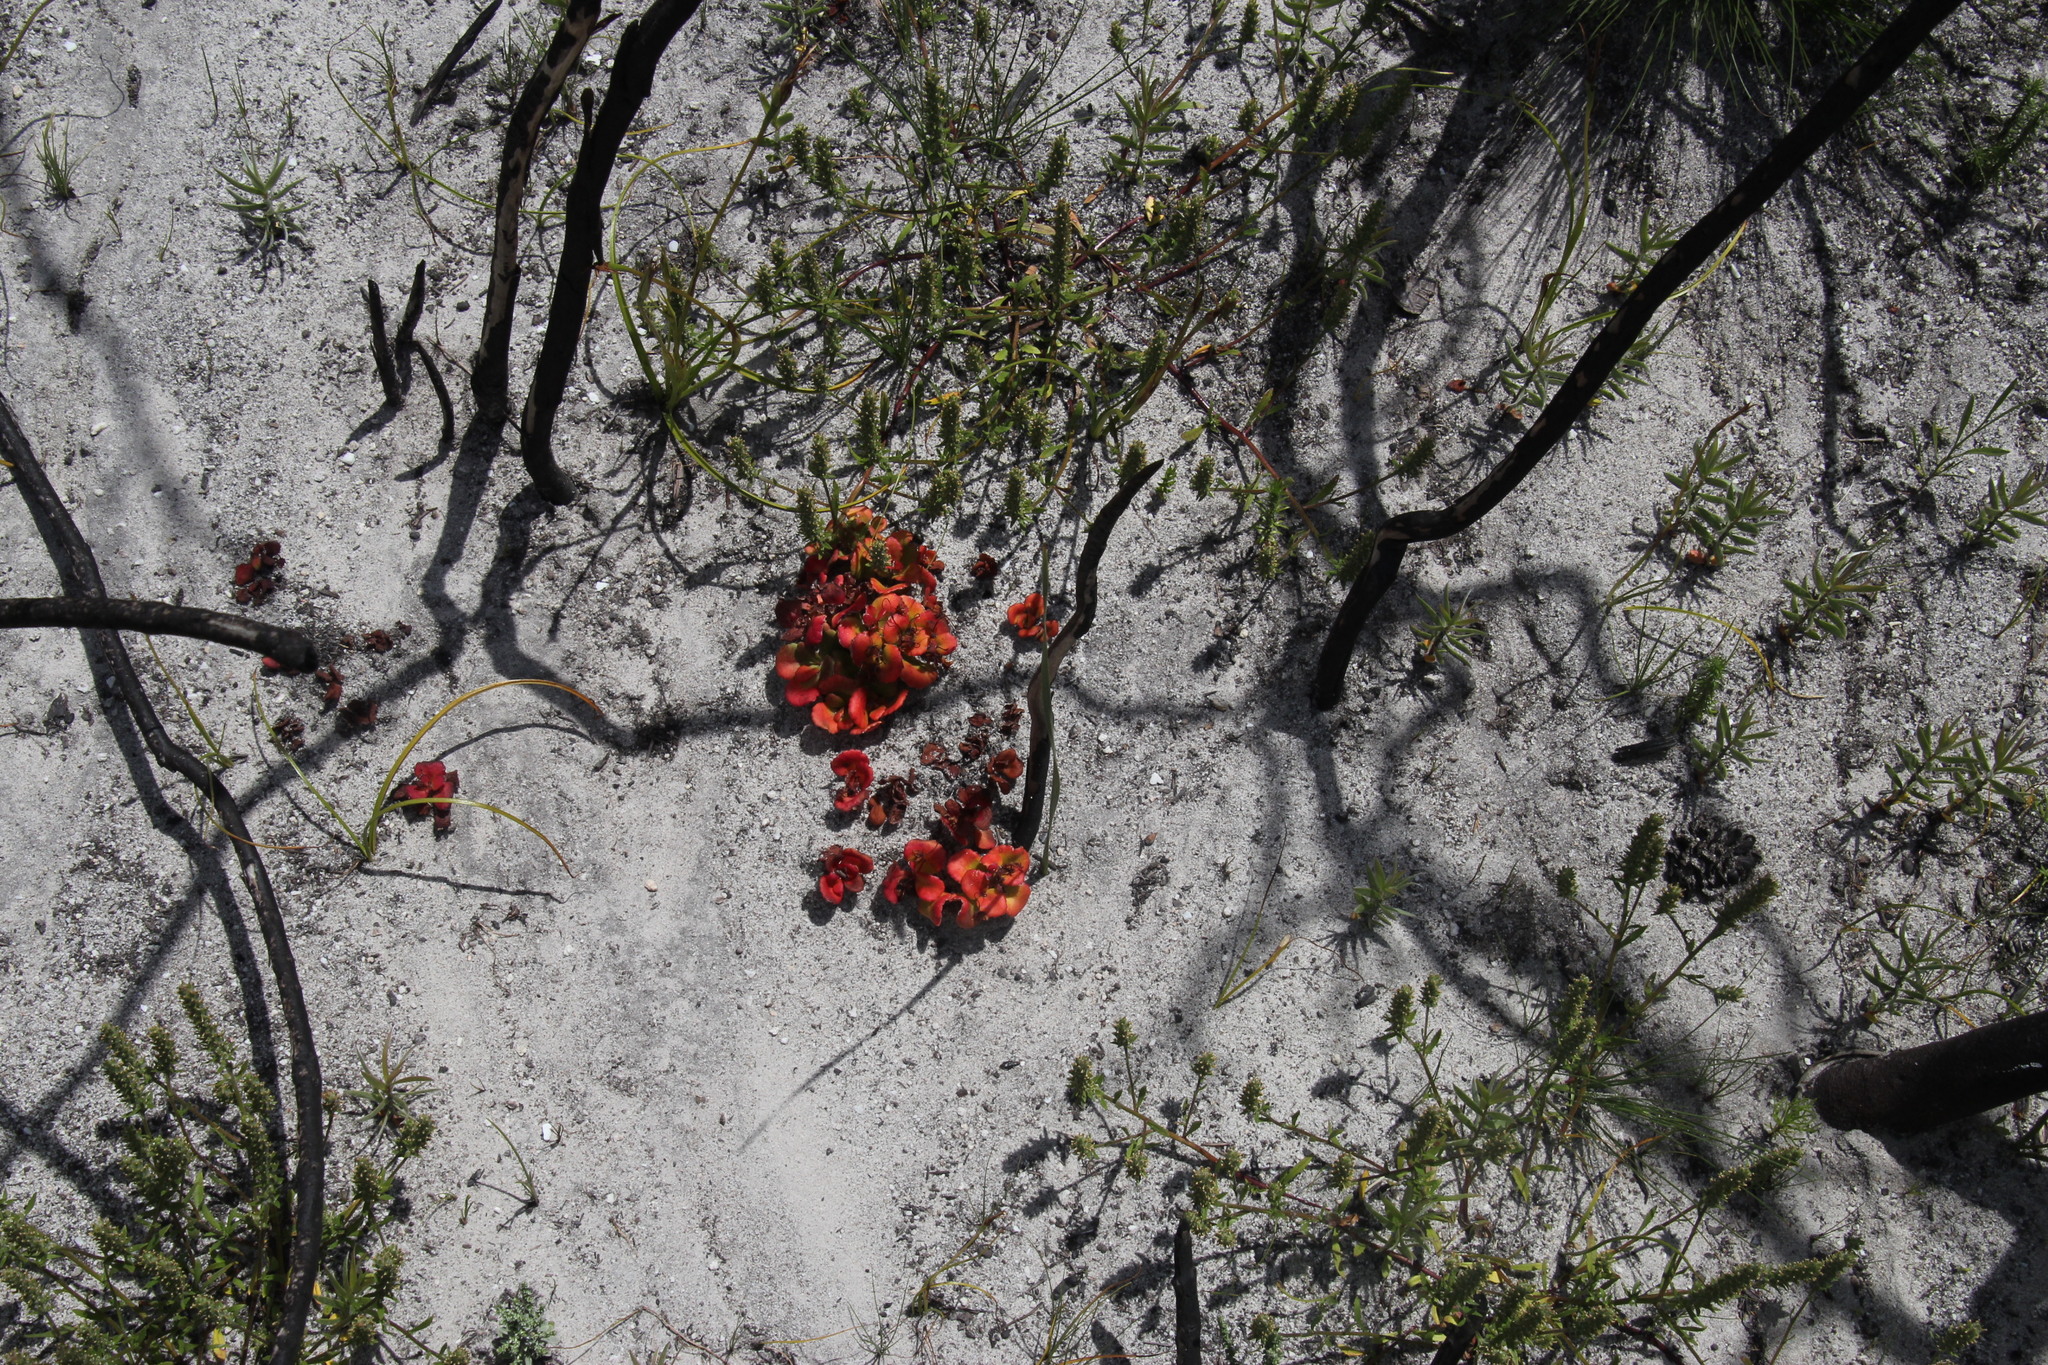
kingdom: Plantae
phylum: Tracheophyta
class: Magnoliopsida
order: Saxifragales
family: Crassulaceae
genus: Crassula
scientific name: Crassula capensis
